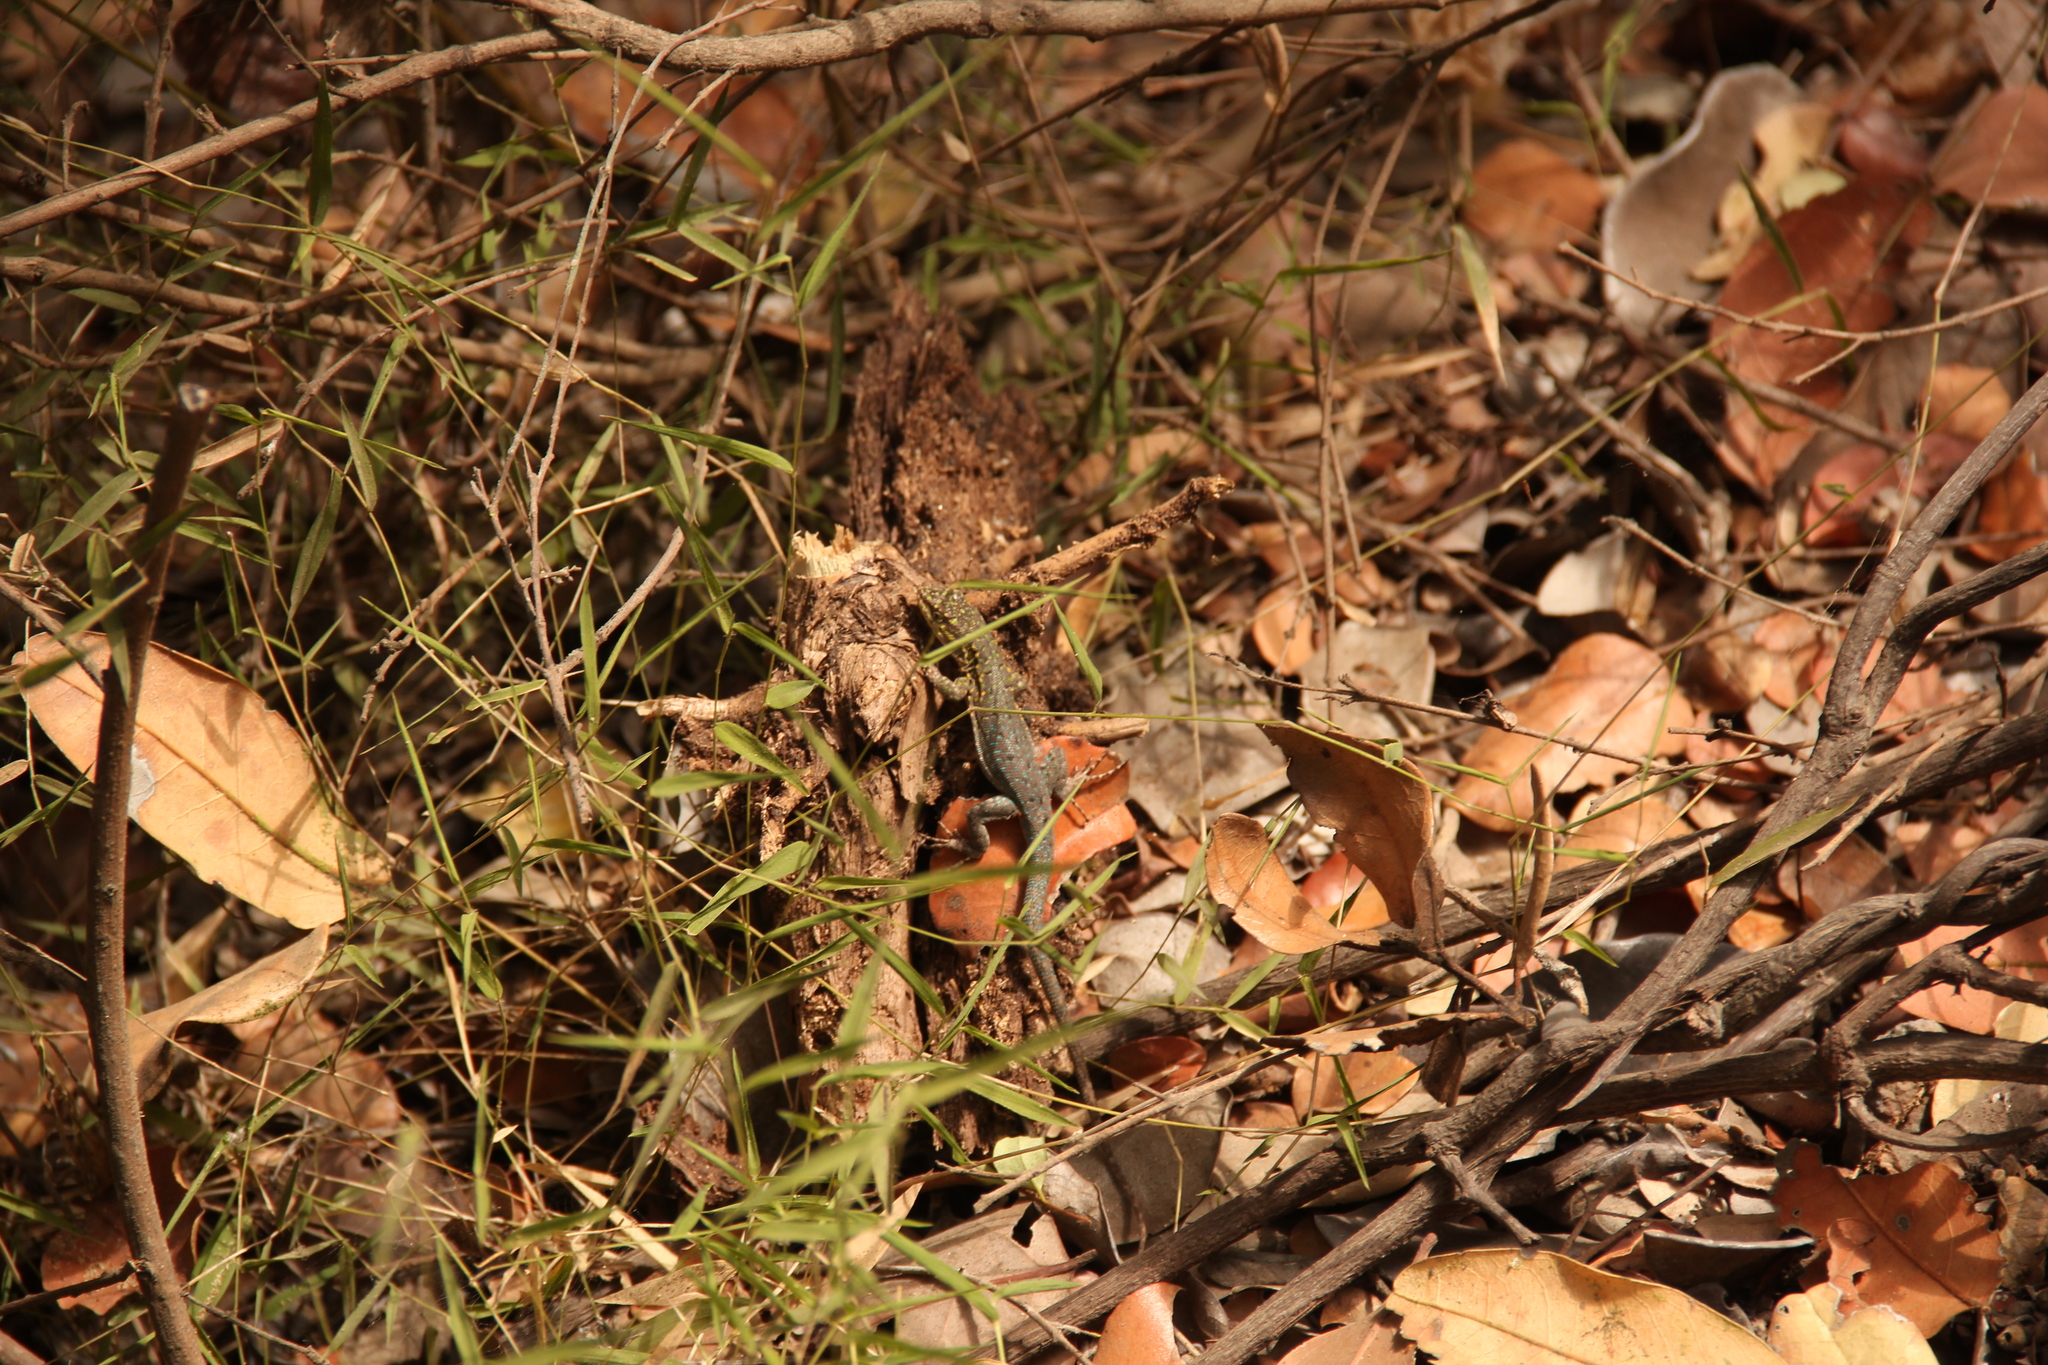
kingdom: Animalia
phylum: Chordata
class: Squamata
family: Liolaemidae
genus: Liolaemus
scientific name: Liolaemus tenuis
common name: Thin tree iguana
